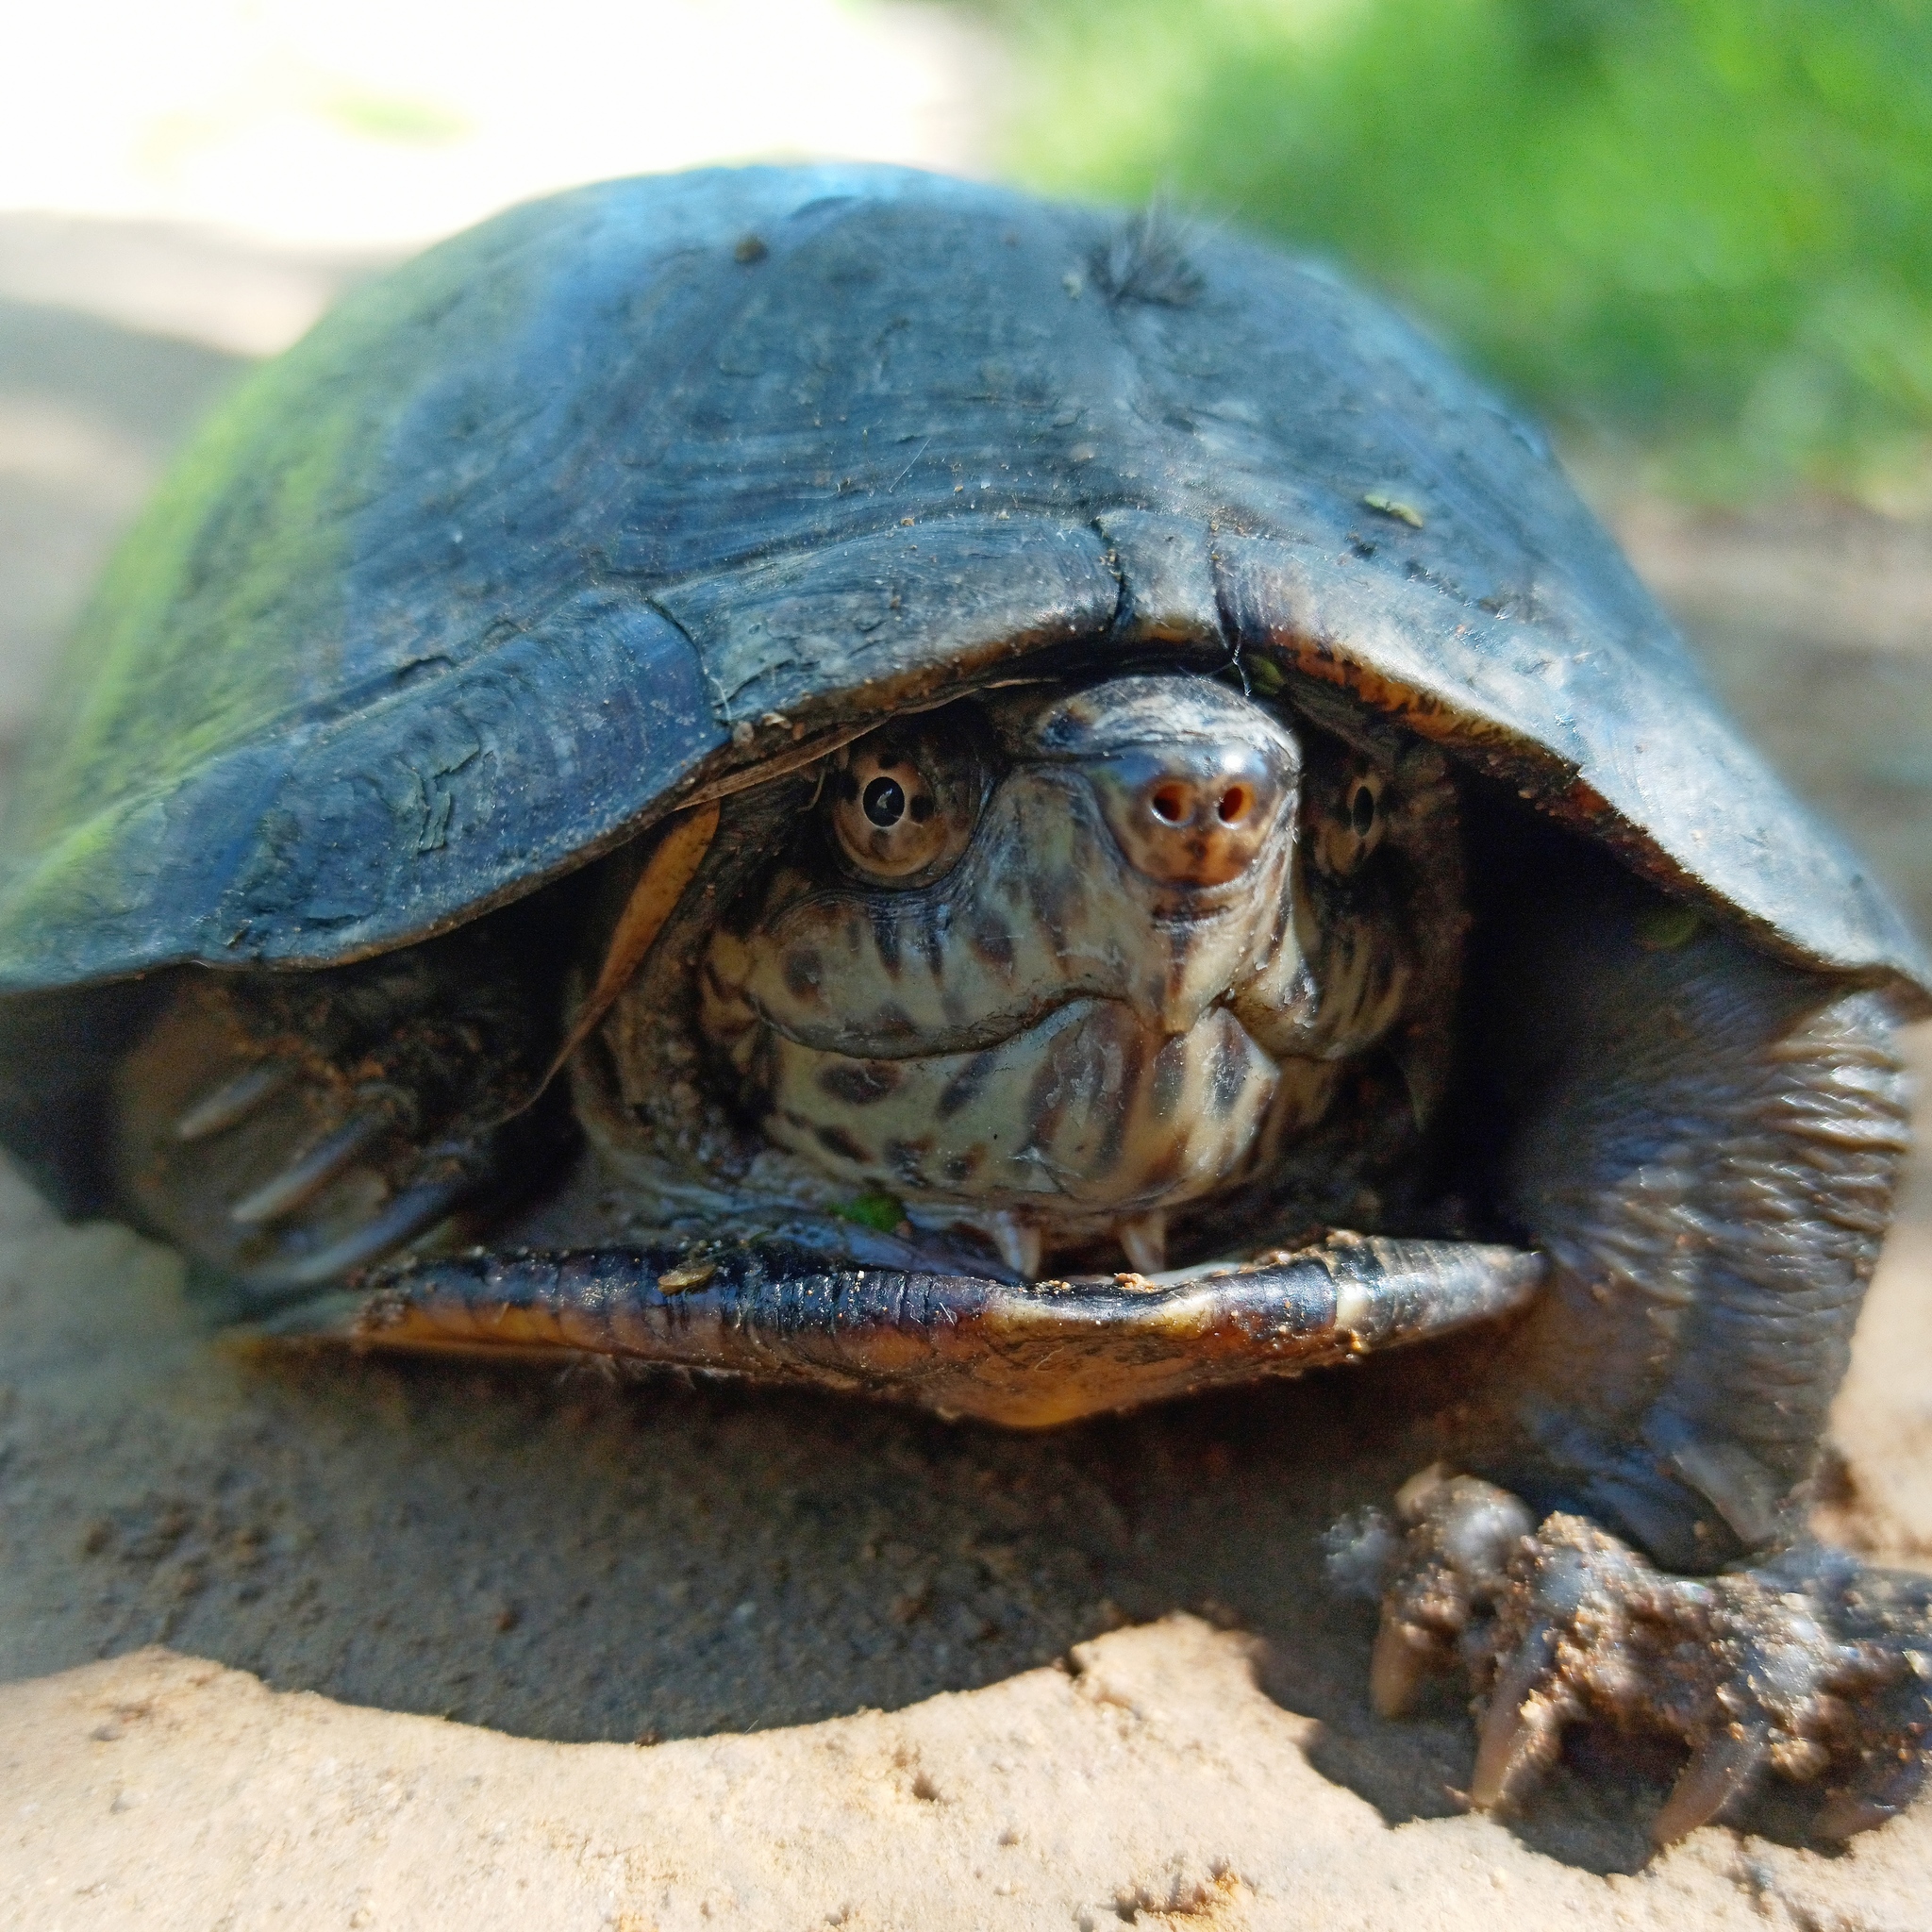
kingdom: Animalia
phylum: Chordata
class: Testudines
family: Kinosternidae
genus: Kinosternon
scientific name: Kinosternon integrum
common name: Mexican mud turtle
